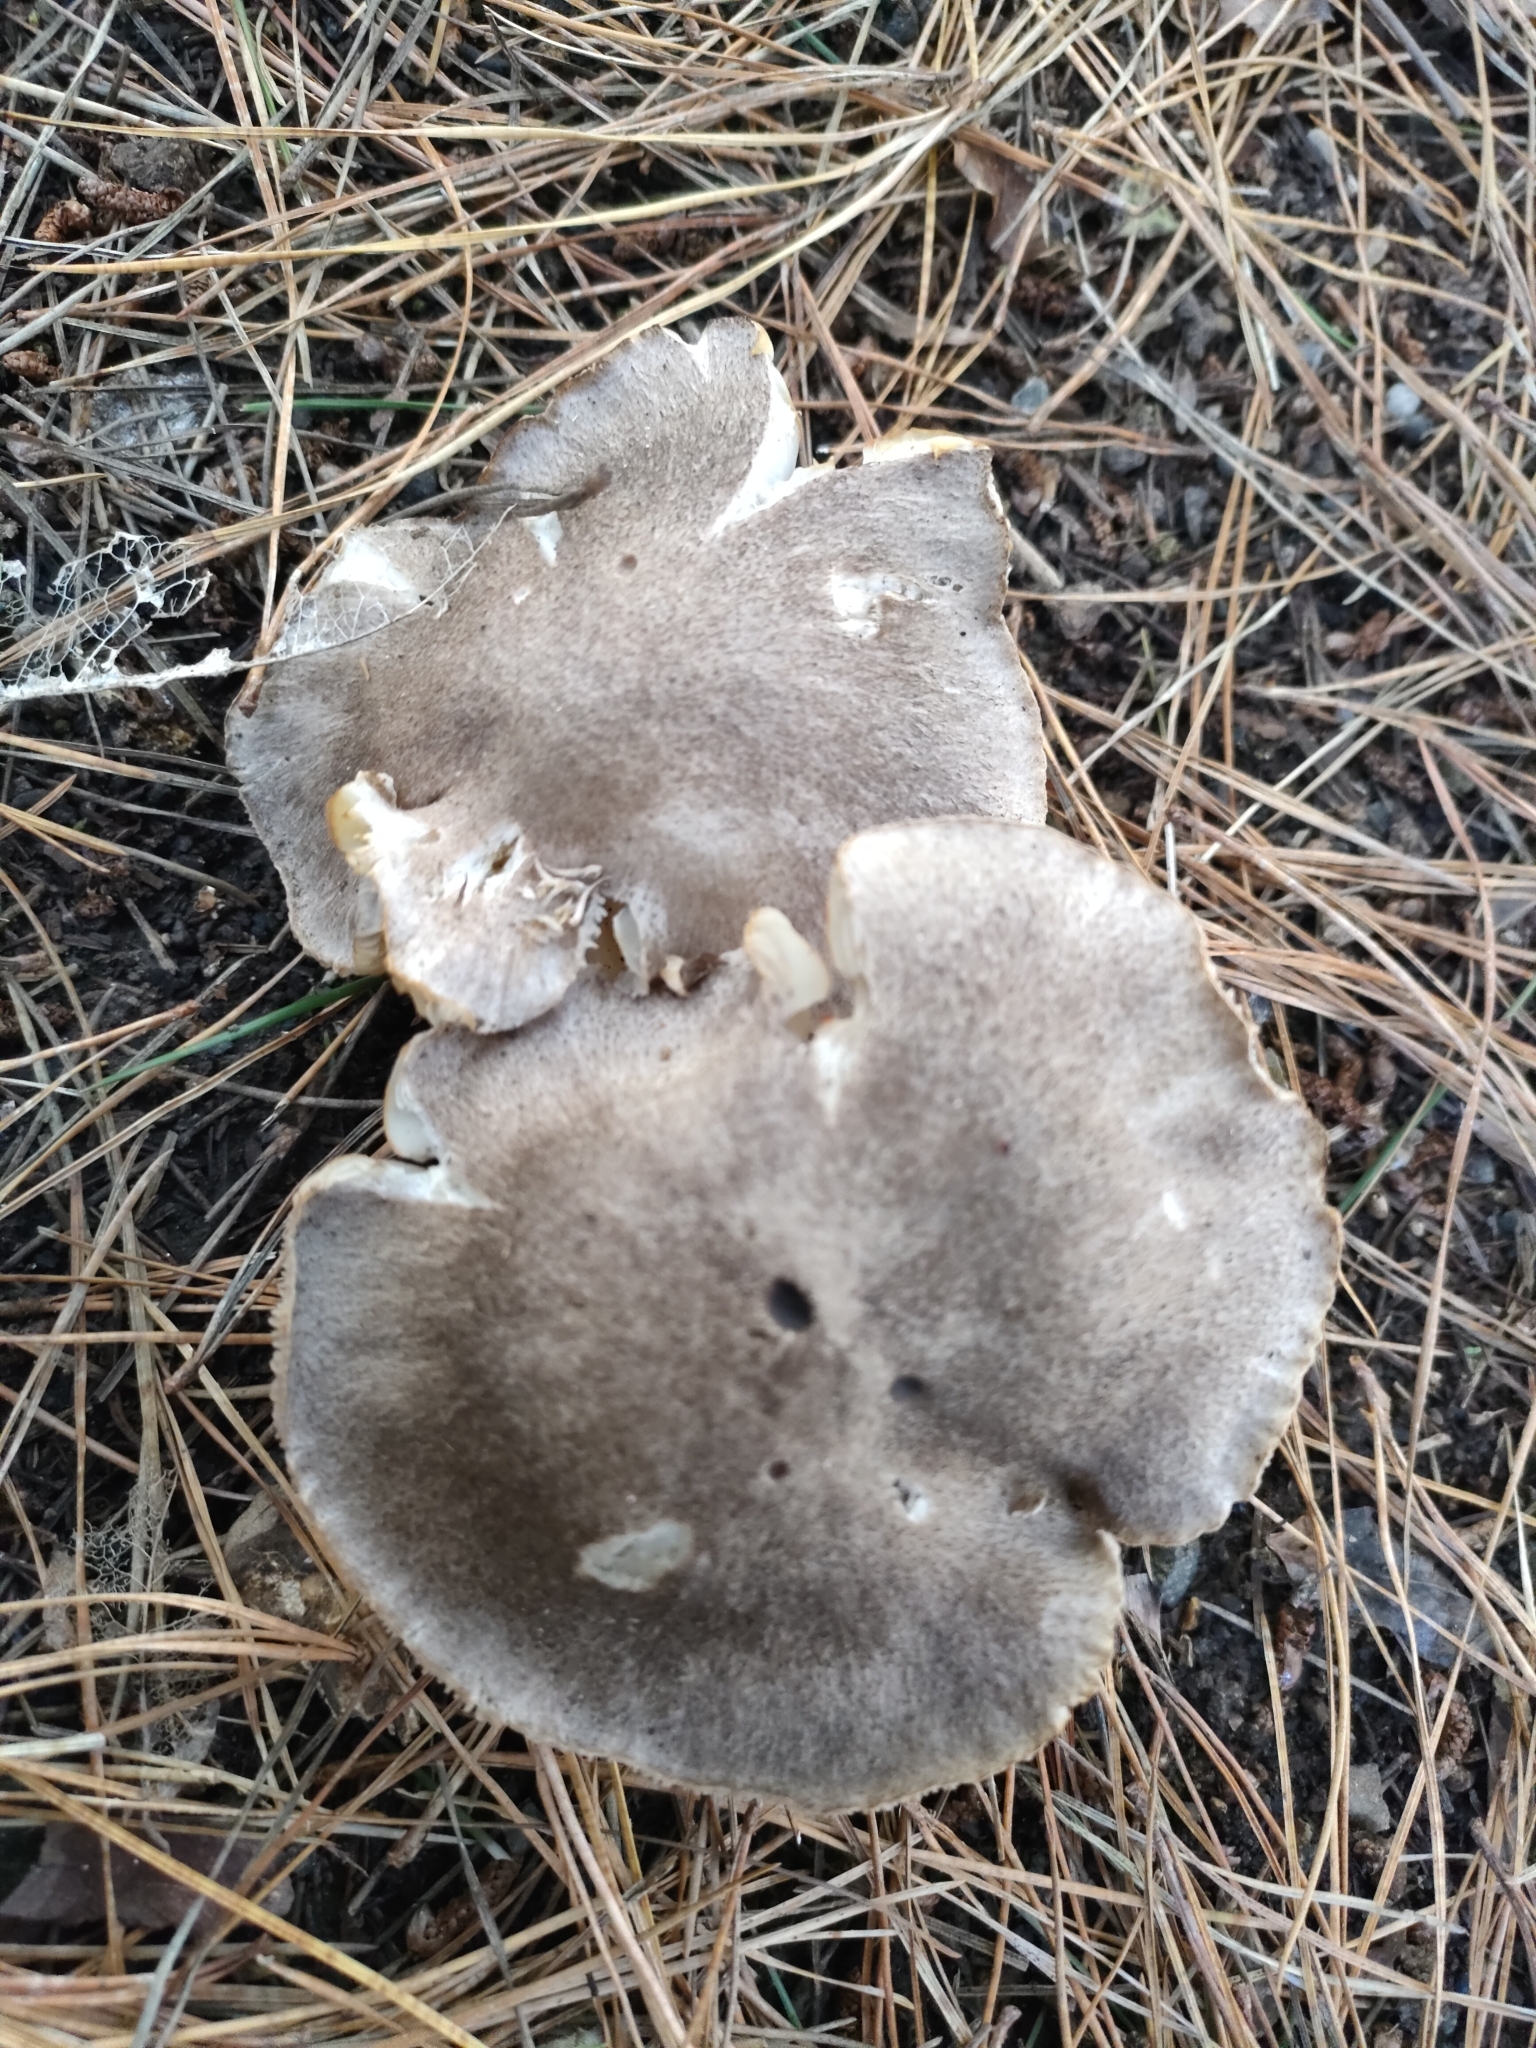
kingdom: Fungi
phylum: Basidiomycota
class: Agaricomycetes
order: Agaricales
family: Tricholomataceae
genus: Tricholoma
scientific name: Tricholoma terreum
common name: Grey knight
